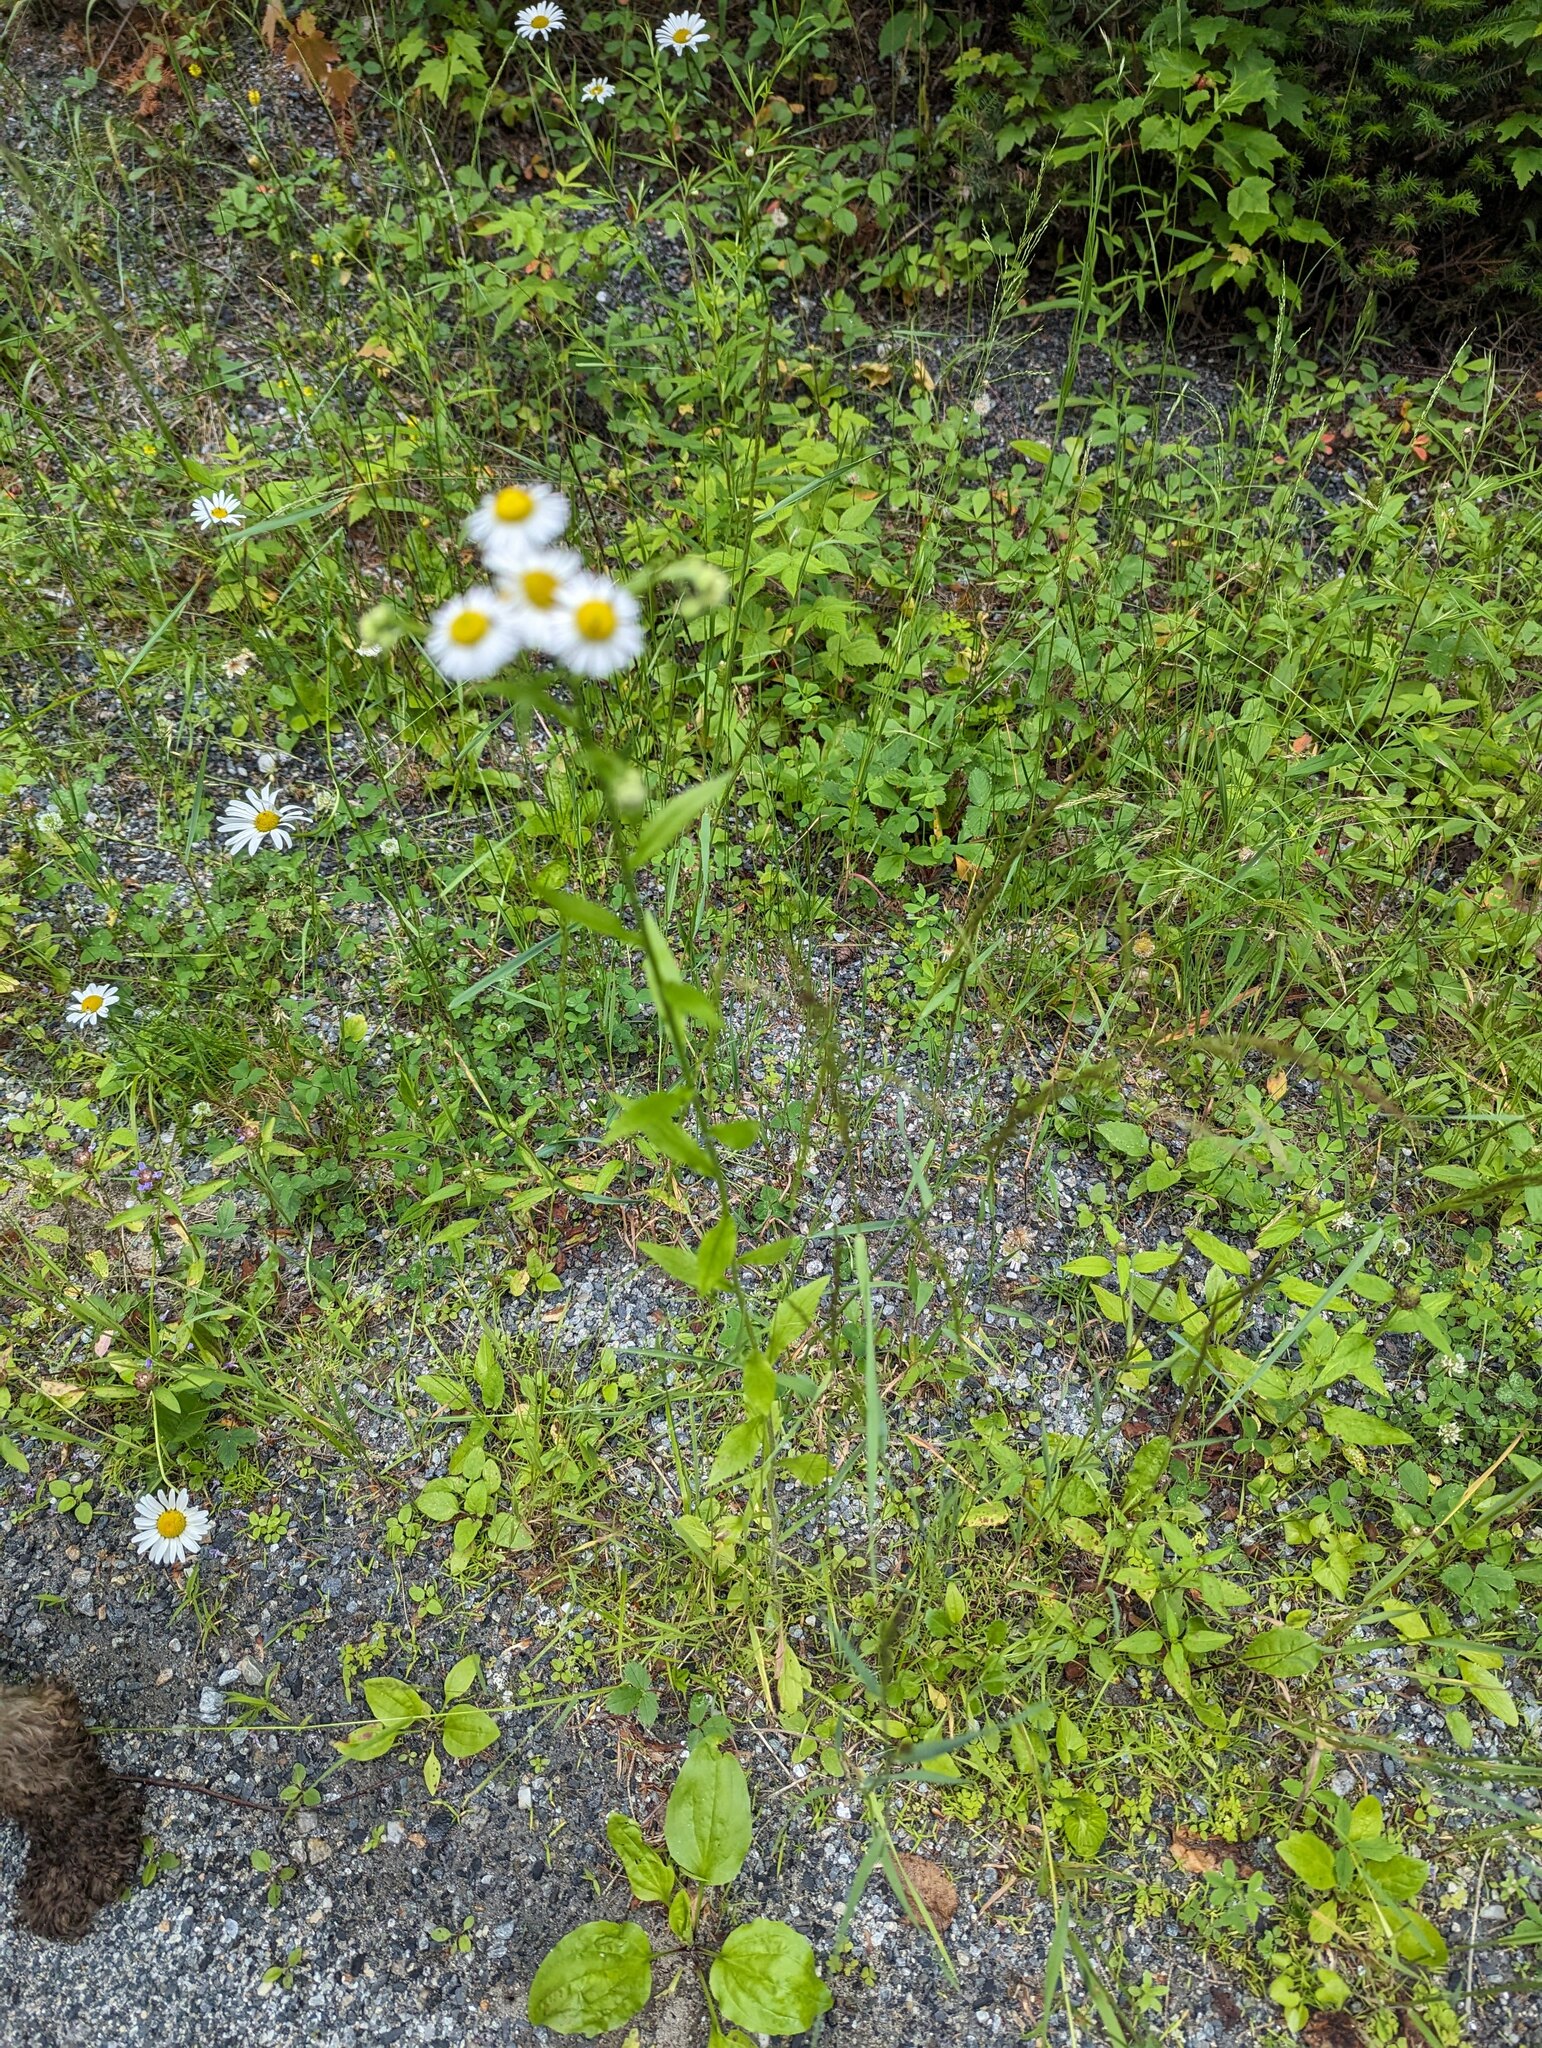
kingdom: Plantae
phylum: Tracheophyta
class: Magnoliopsida
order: Asterales
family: Asteraceae
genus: Erigeron
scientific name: Erigeron strigosus
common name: Common eastern fleabane
